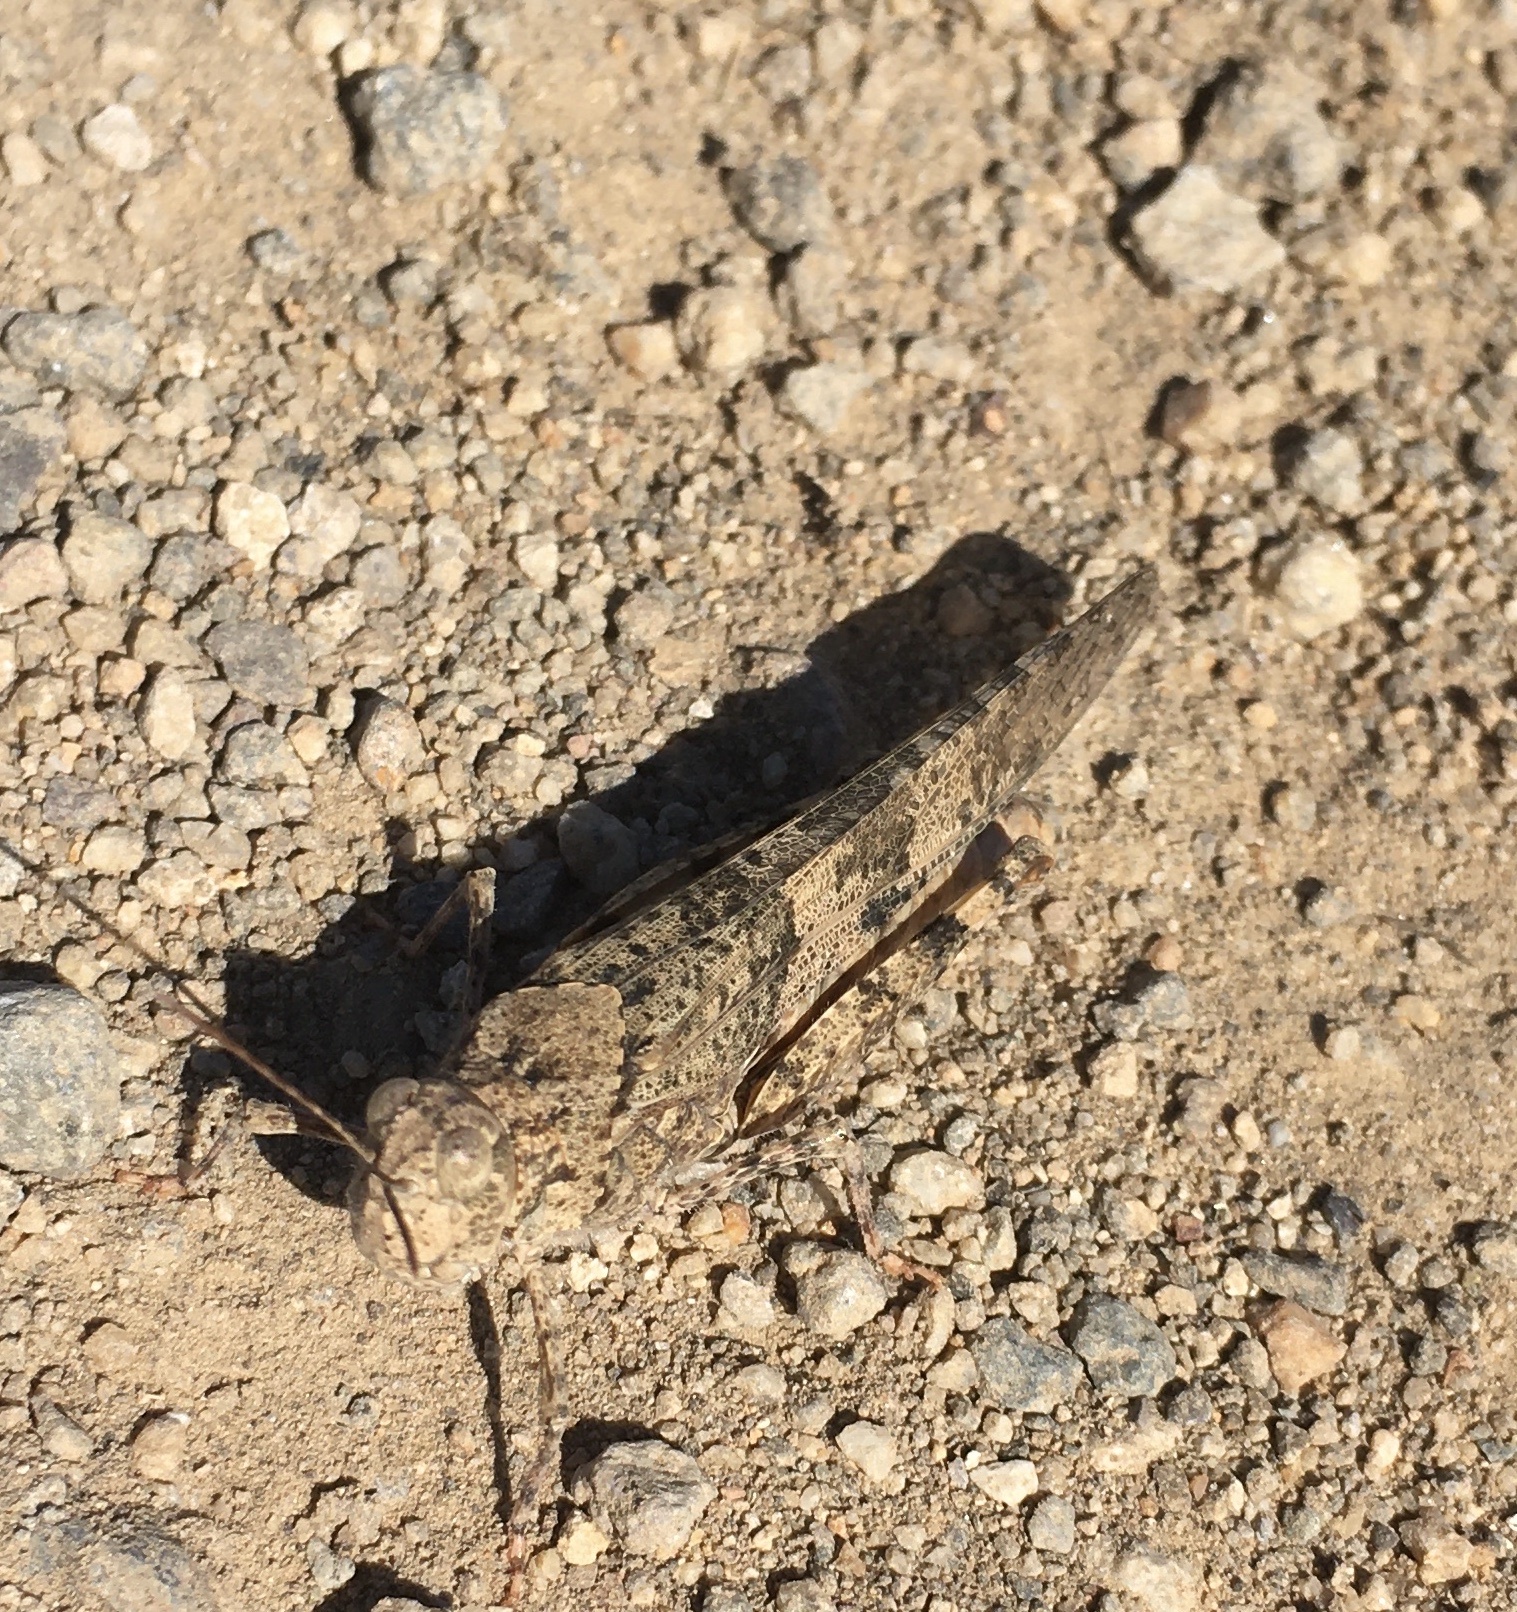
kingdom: Animalia
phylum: Arthropoda
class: Insecta
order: Orthoptera
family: Acrididae
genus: Trimerotropis
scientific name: Trimerotropis pallidipennis
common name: Pallid-winged grasshopper
